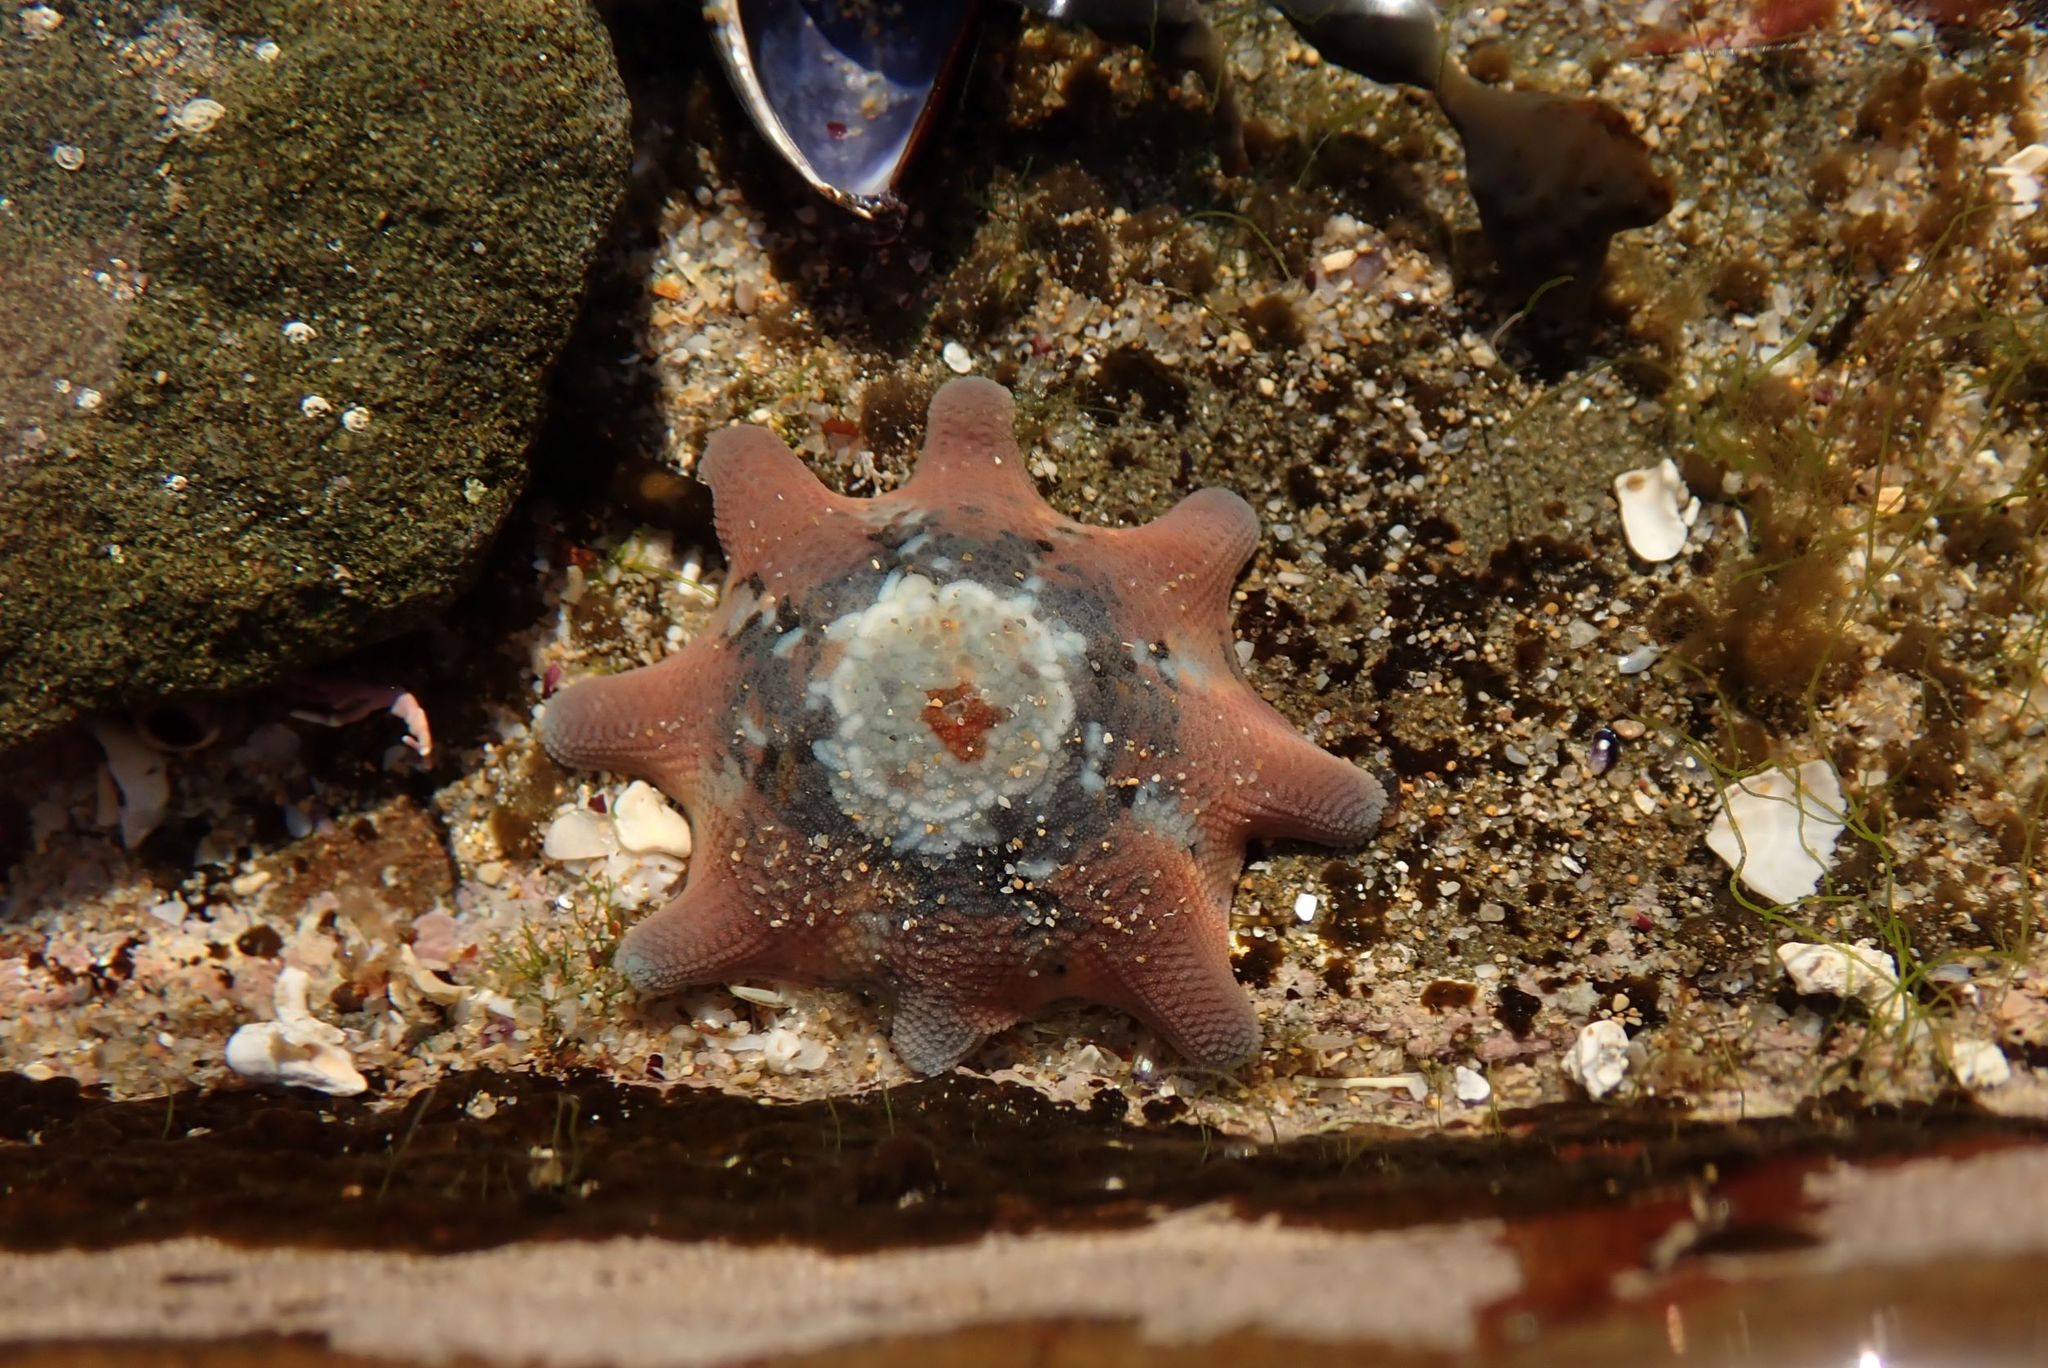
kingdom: Animalia
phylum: Echinodermata
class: Asteroidea
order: Valvatida
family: Asterinidae
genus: Meridiastra
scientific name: Meridiastra calcar
